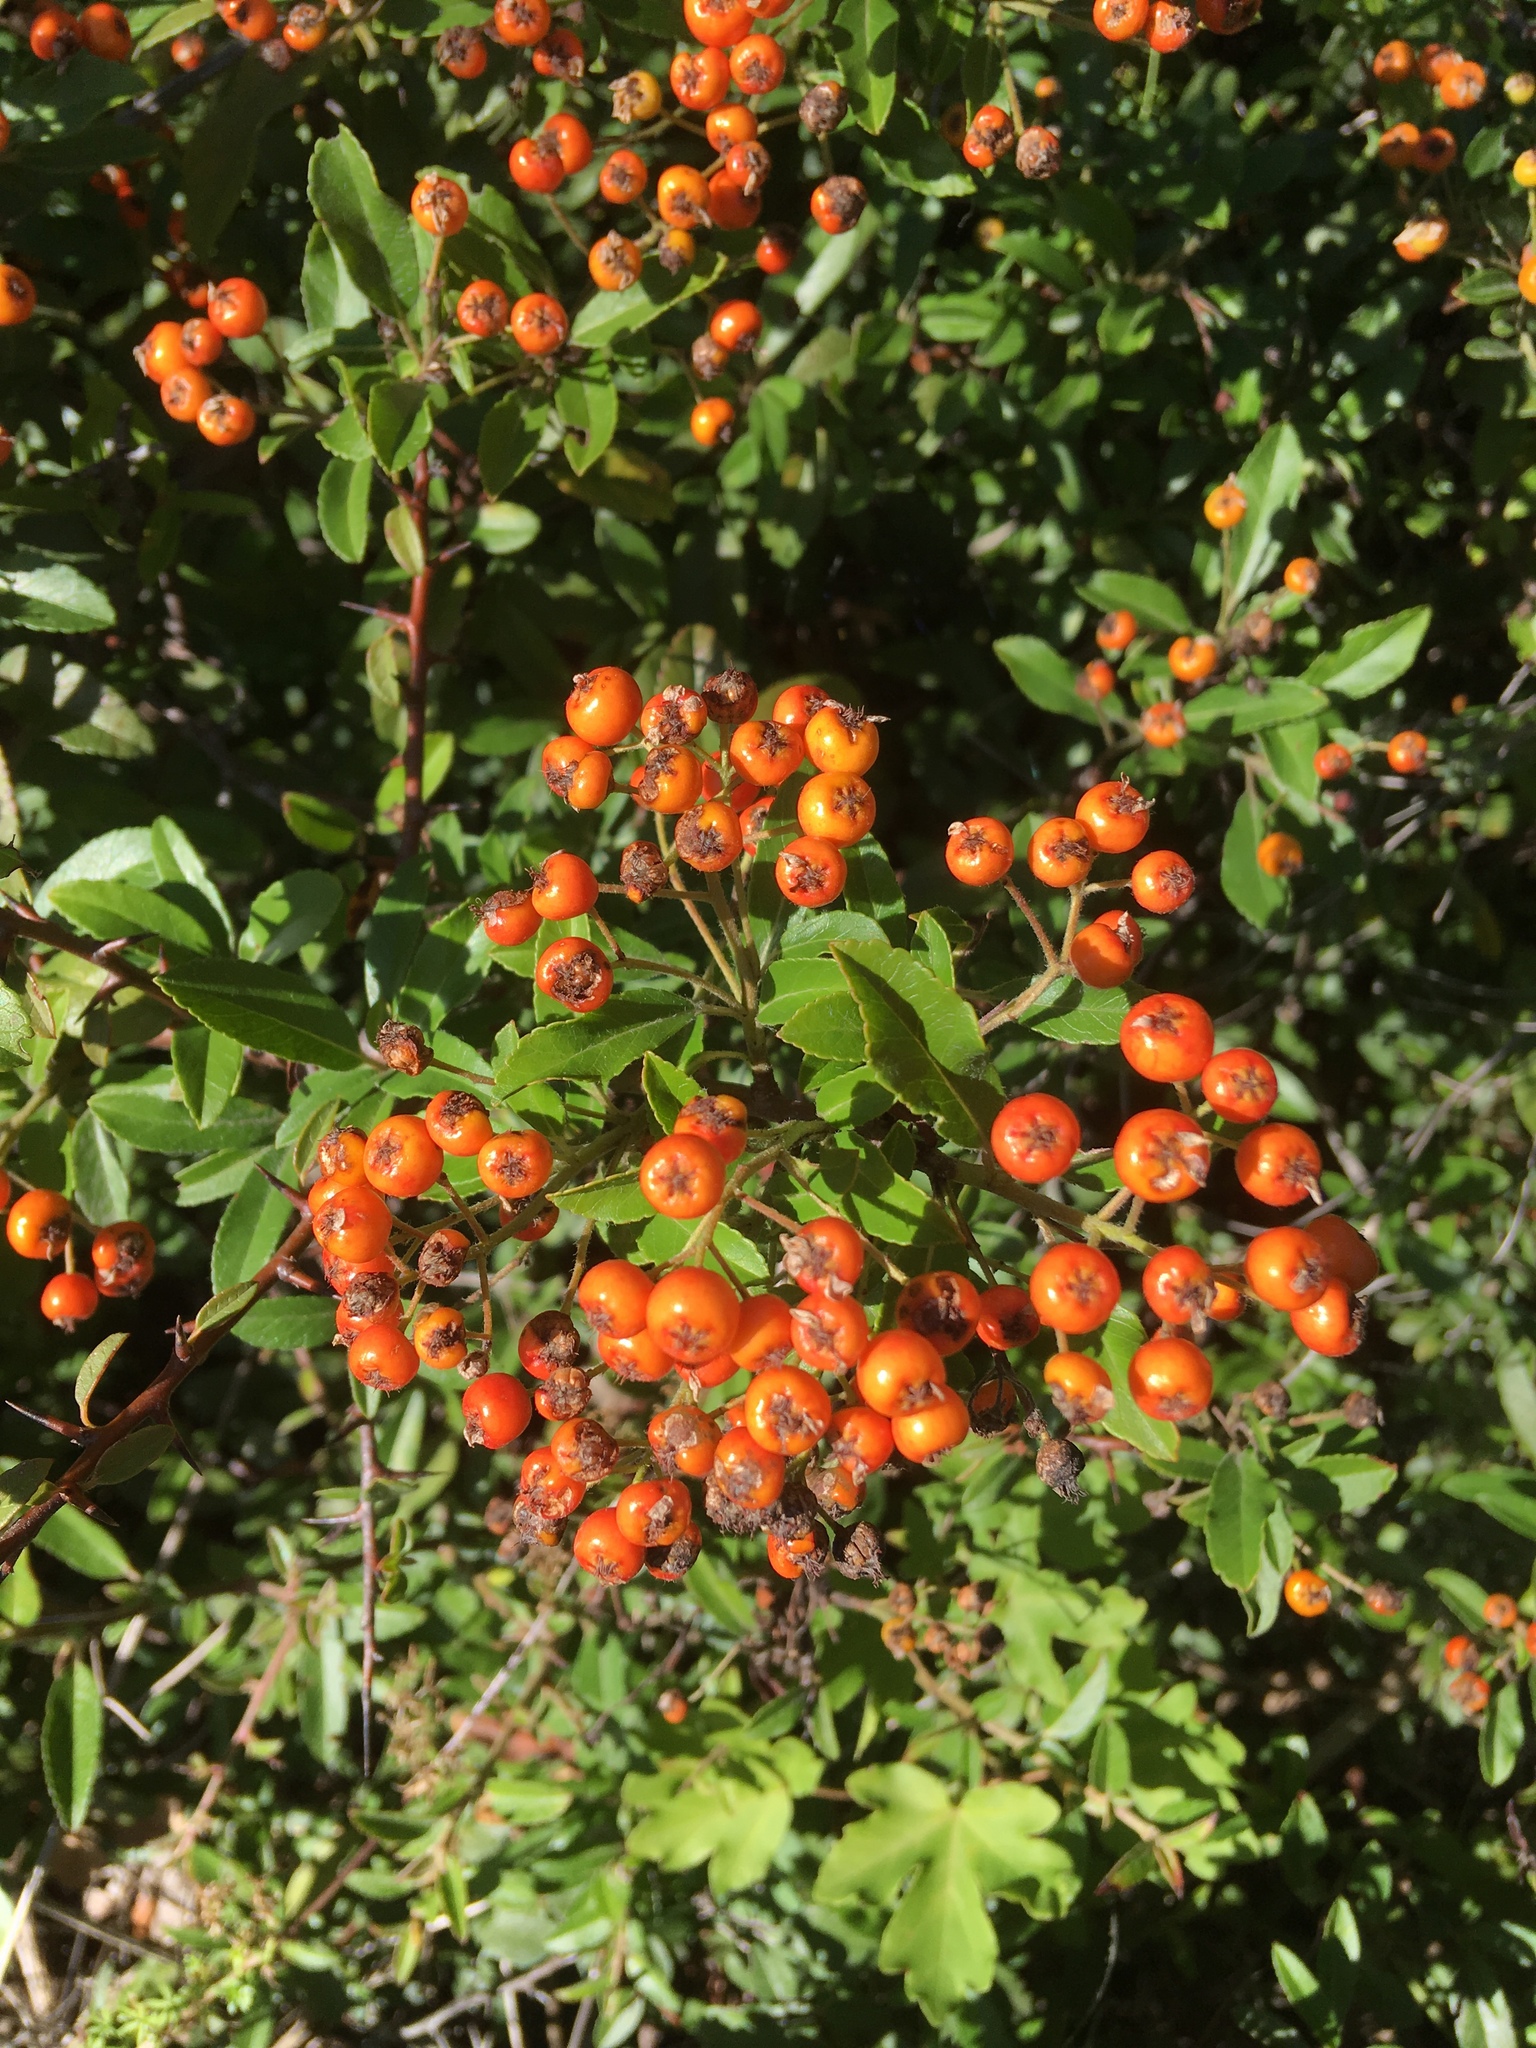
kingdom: Plantae
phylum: Tracheophyta
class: Magnoliopsida
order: Rosales
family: Rosaceae
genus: Pyracantha
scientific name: Pyracantha coccinea
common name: Firethorn
